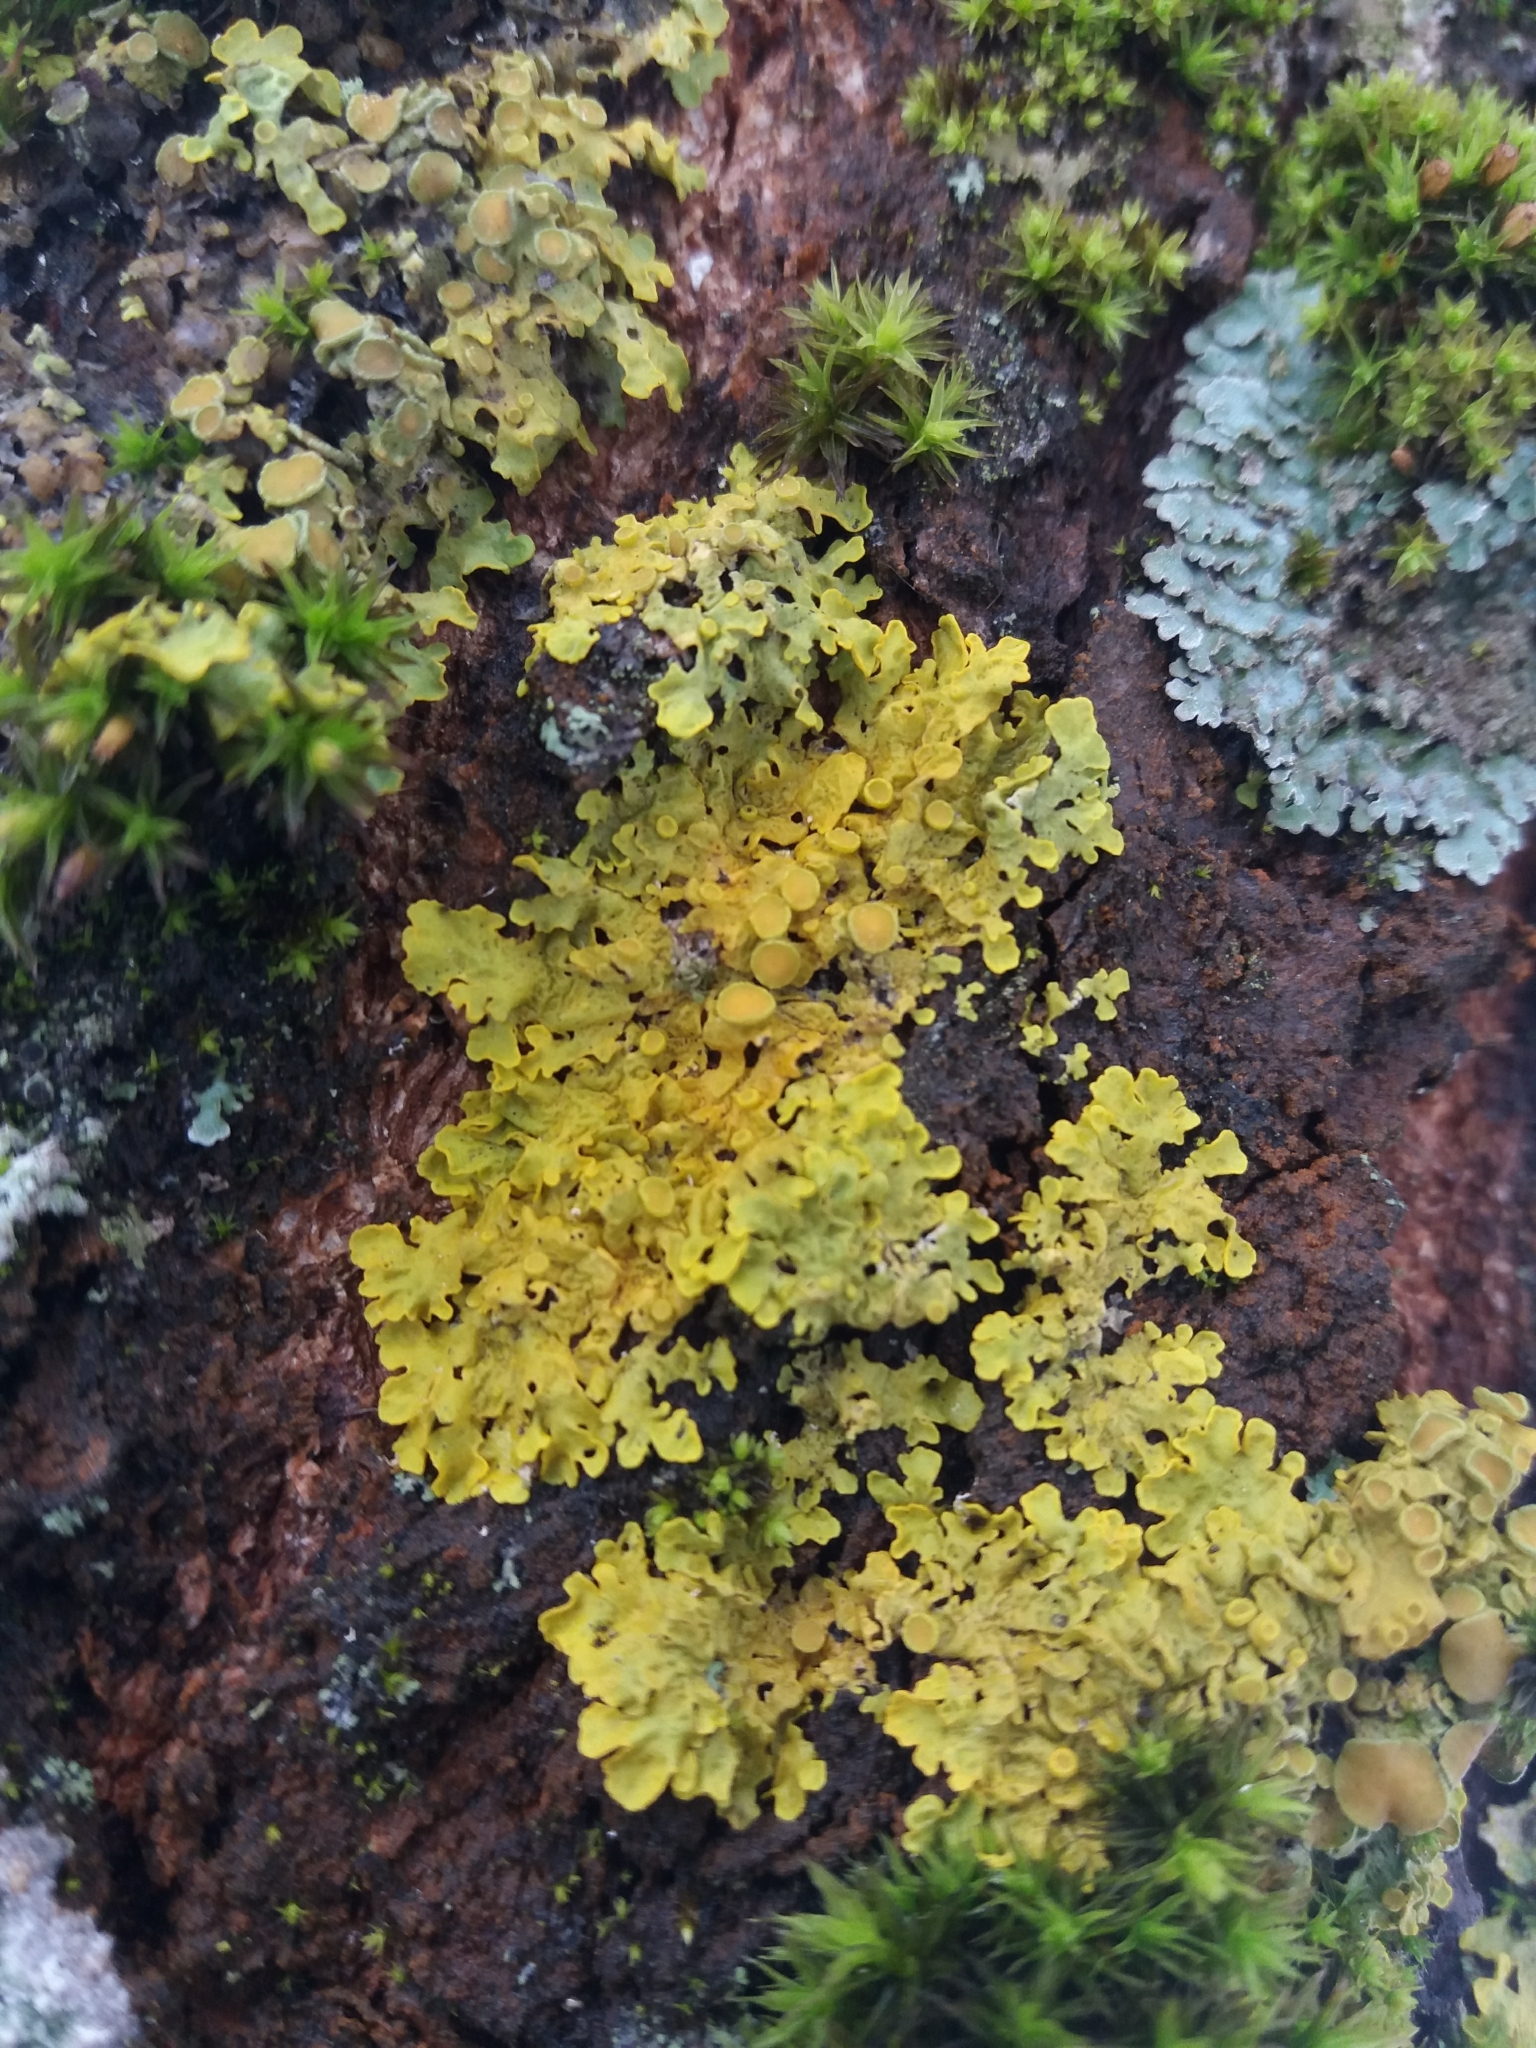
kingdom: Fungi
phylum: Ascomycota
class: Lecanoromycetes
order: Teloschistales
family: Teloschistaceae
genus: Xanthoria
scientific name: Xanthoria parietina
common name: Common orange lichen
